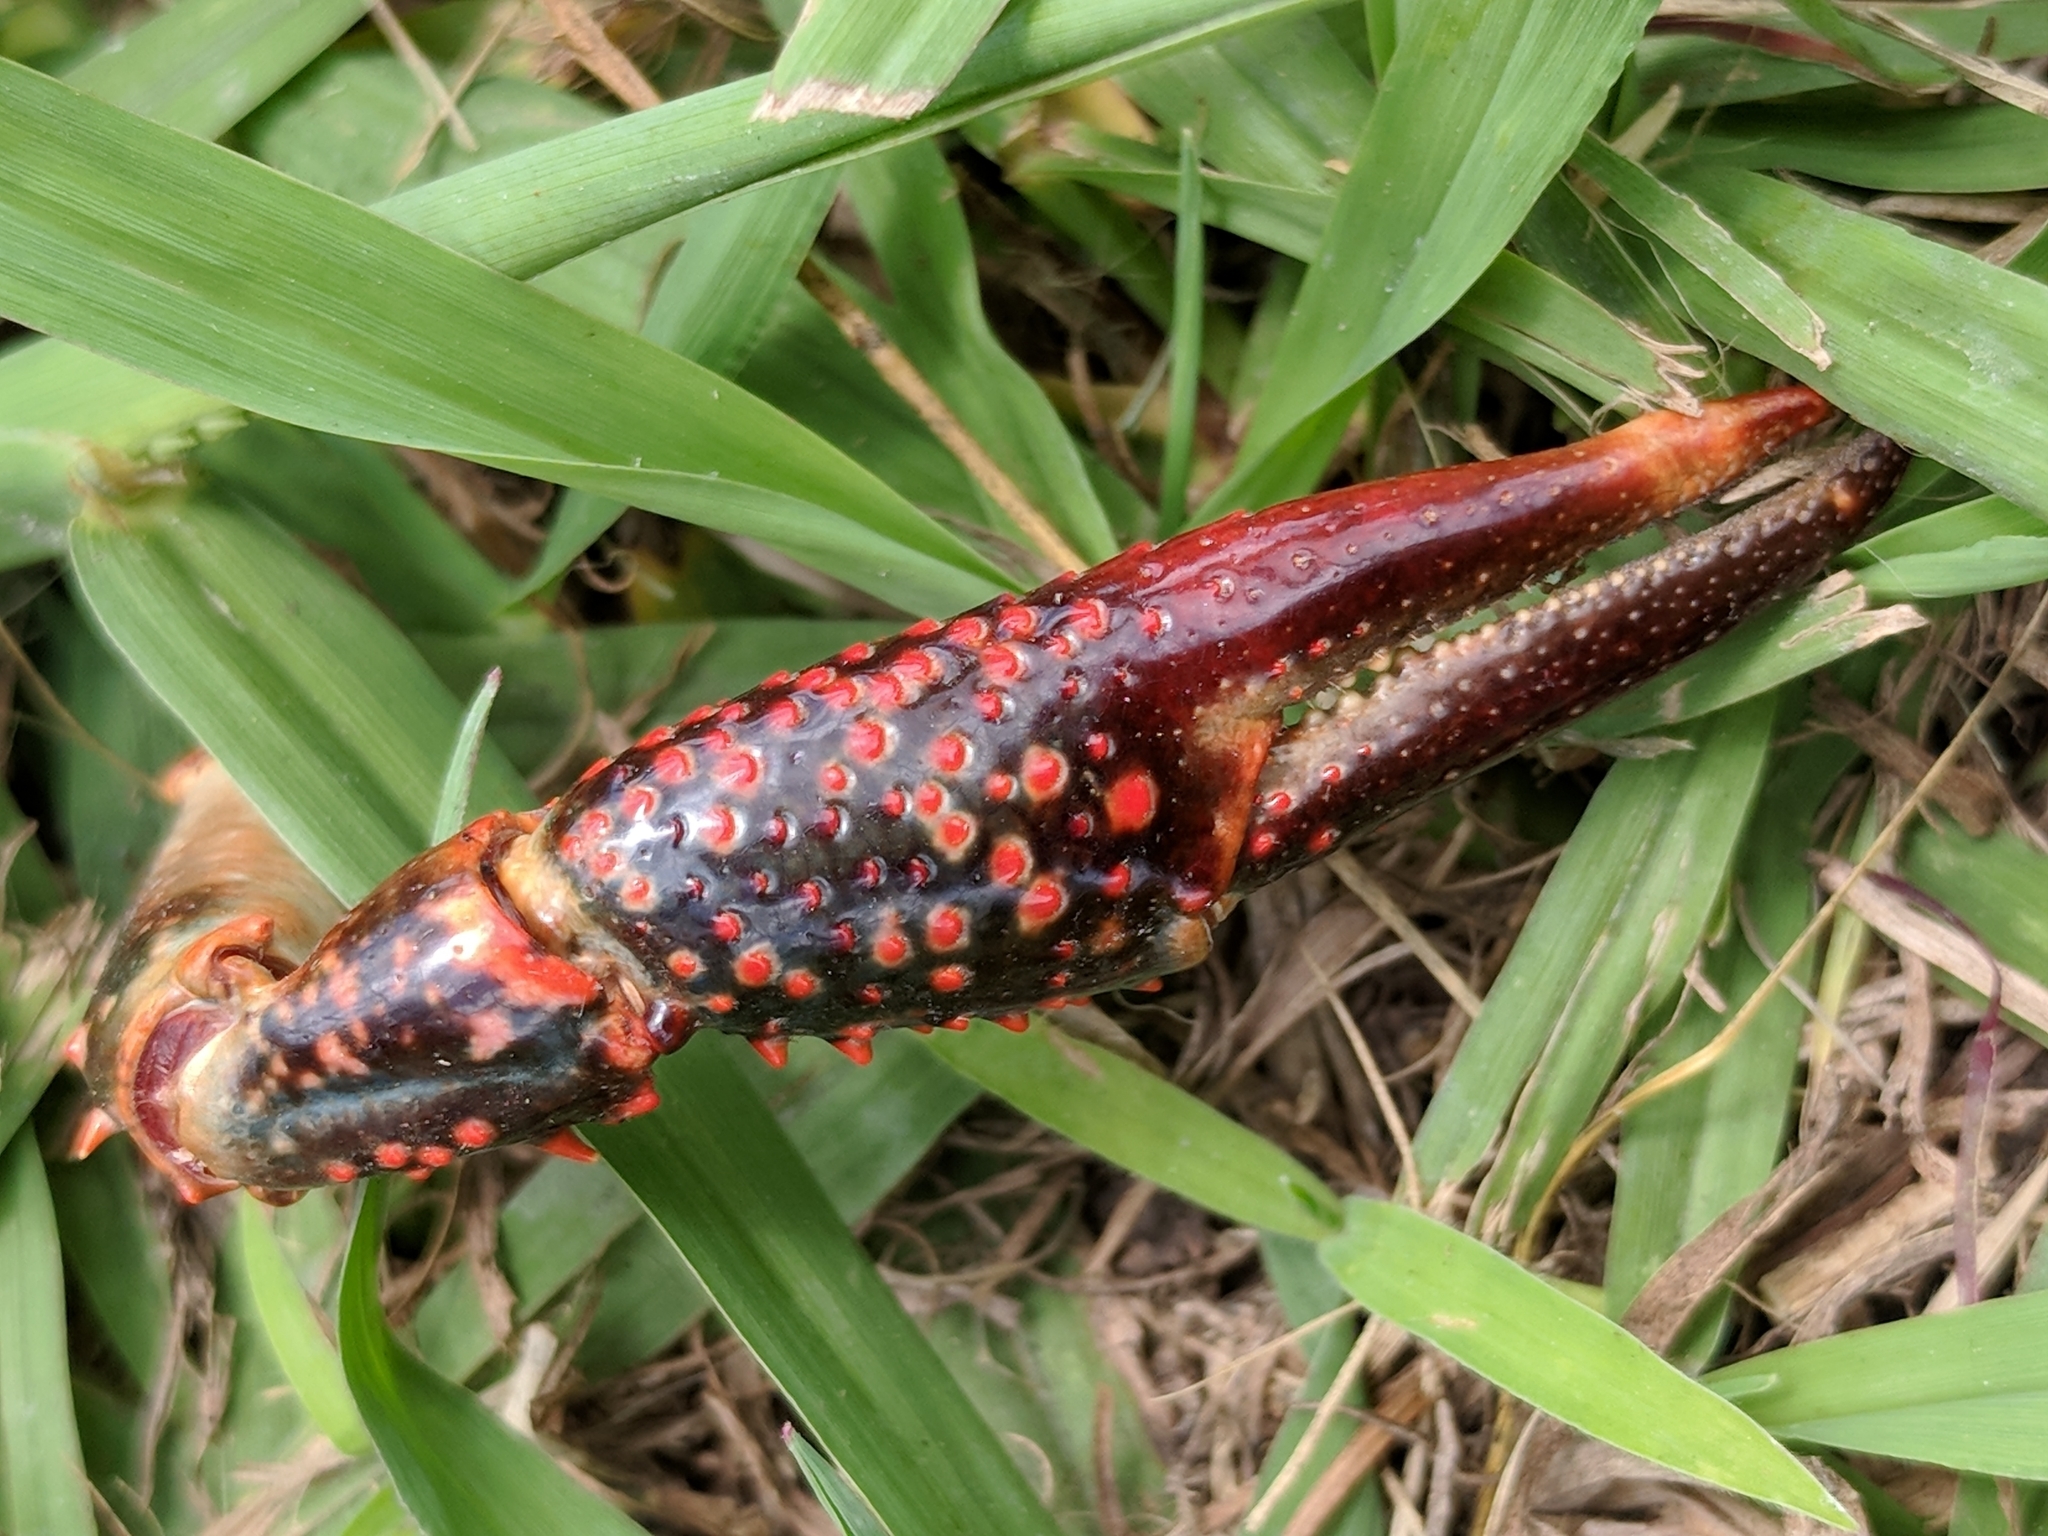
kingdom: Animalia
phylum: Arthropoda
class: Malacostraca
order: Decapoda
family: Cambaridae
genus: Procambarus
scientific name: Procambarus clarkii
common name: Red swamp crayfish
